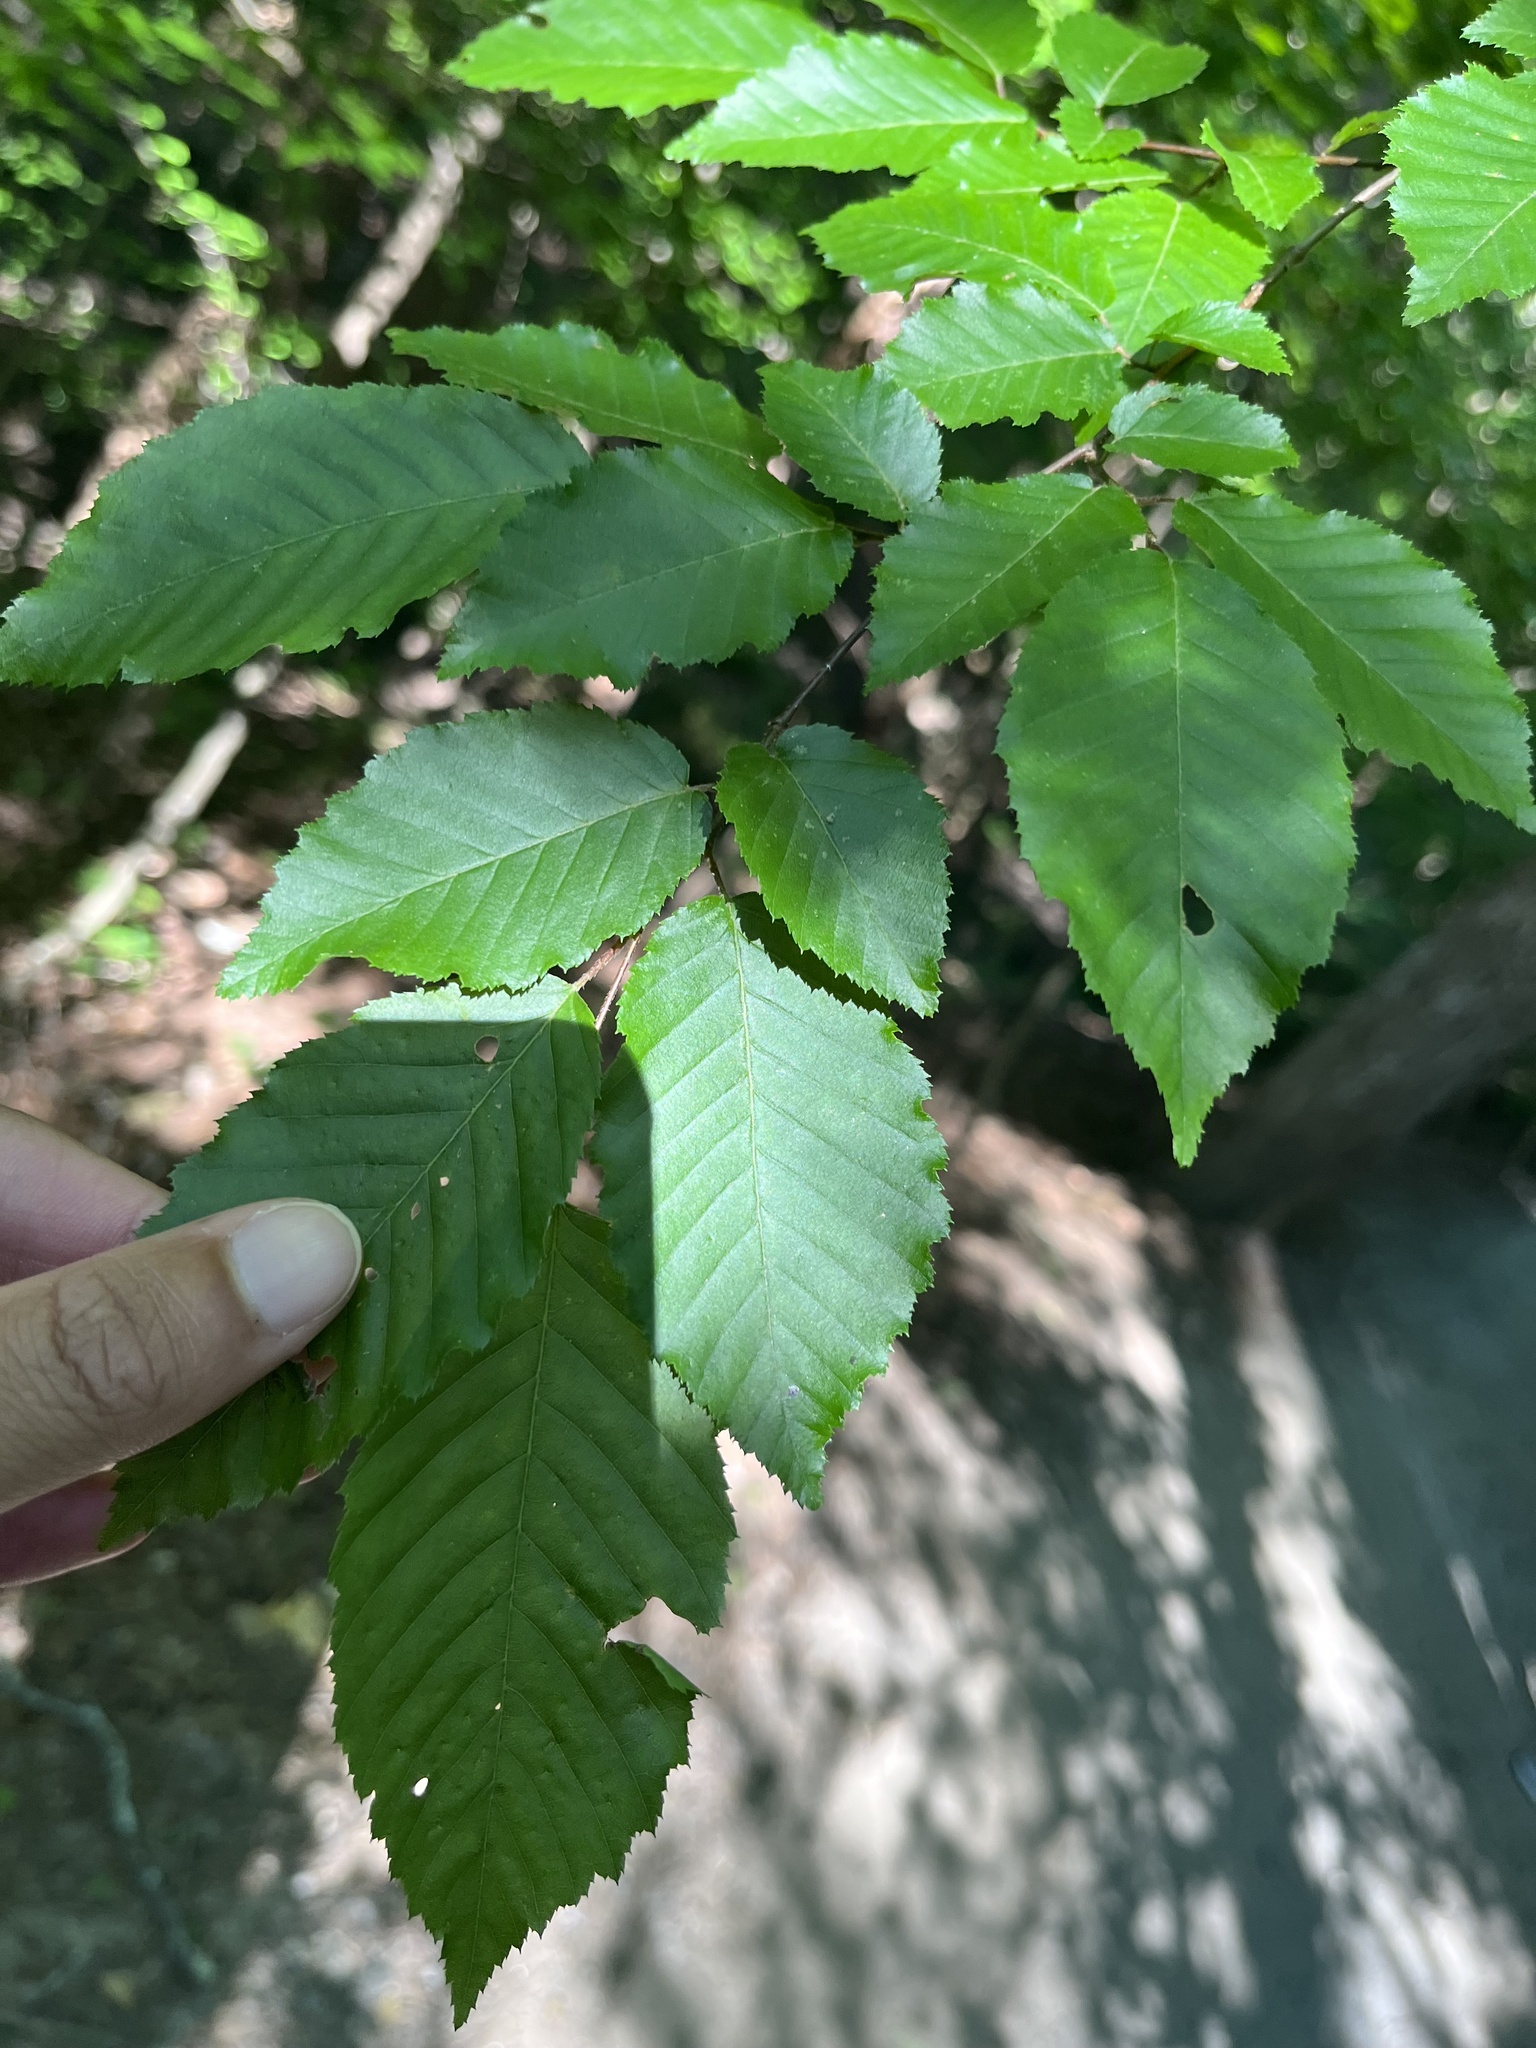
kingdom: Plantae
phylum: Tracheophyta
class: Magnoliopsida
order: Fagales
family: Betulaceae
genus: Carpinus
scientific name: Carpinus caroliniana
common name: American hornbeam
